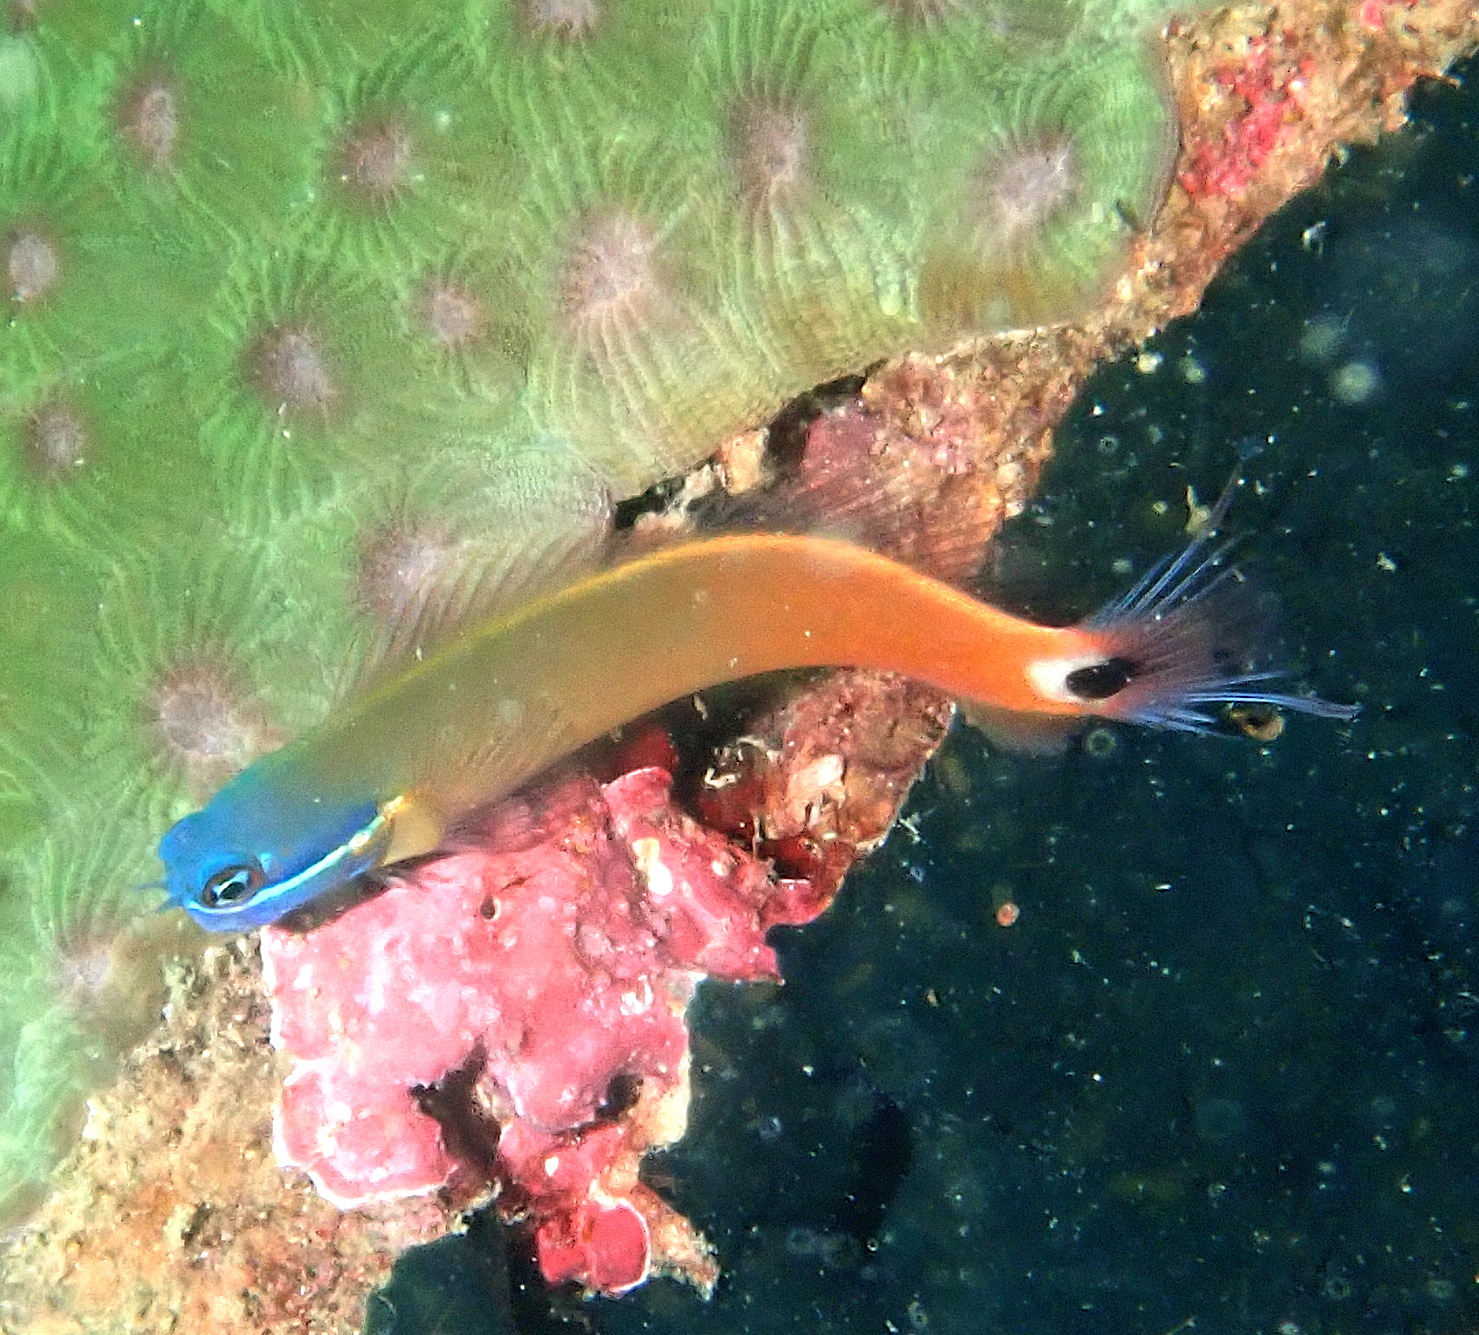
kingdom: Animalia
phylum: Chordata
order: Perciformes
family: Blenniidae
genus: Ecsenius
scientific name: Ecsenius stigmatura
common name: Tail-spot combtooth-blenny
